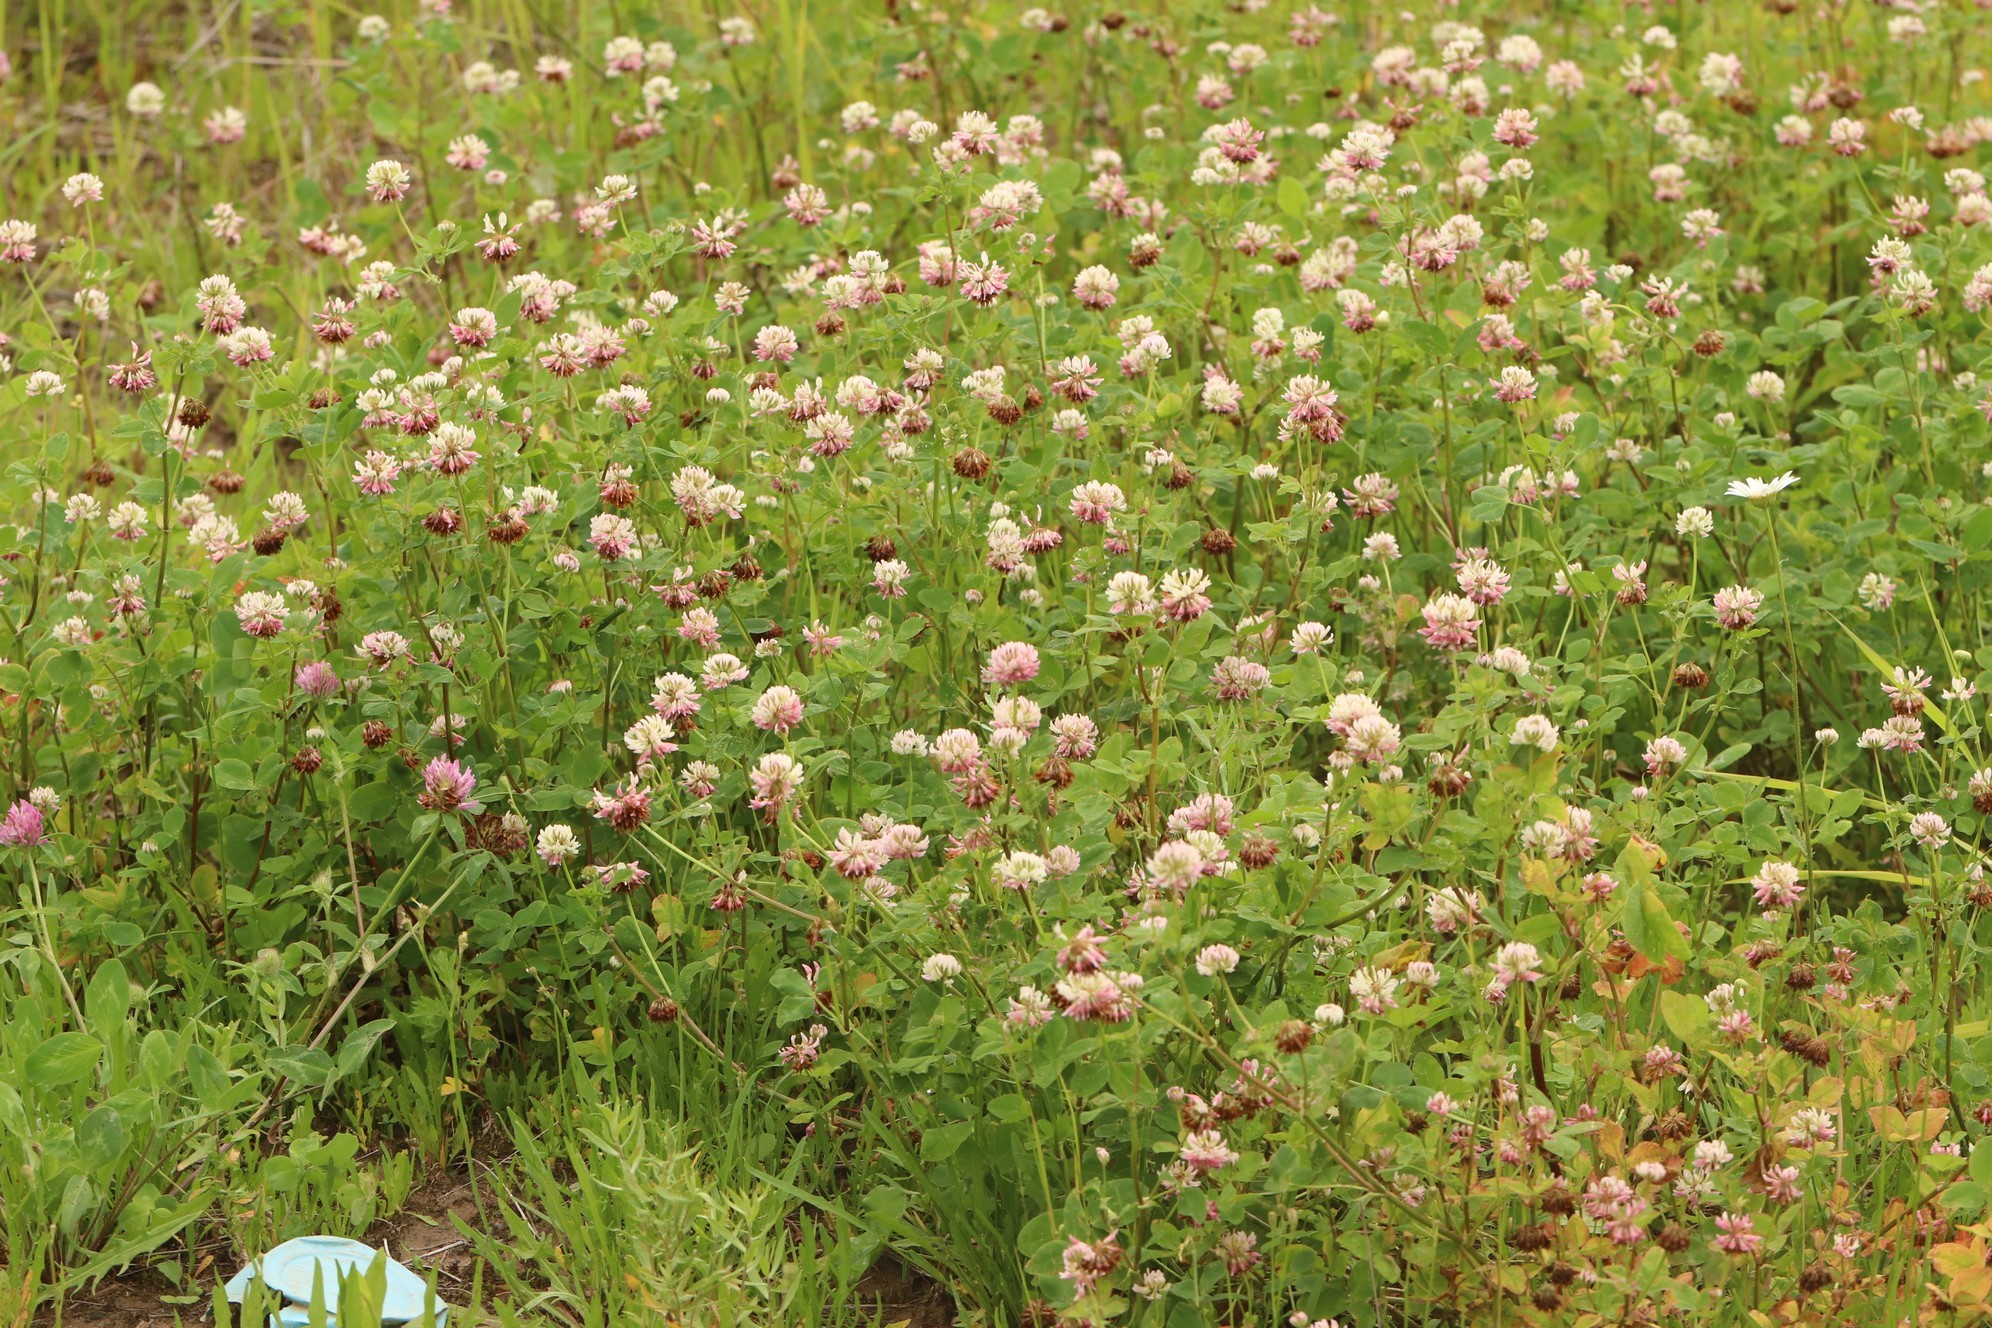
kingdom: Plantae
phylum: Tracheophyta
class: Magnoliopsida
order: Fabales
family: Fabaceae
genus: Trifolium
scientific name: Trifolium hybridum
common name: Alsike clover
